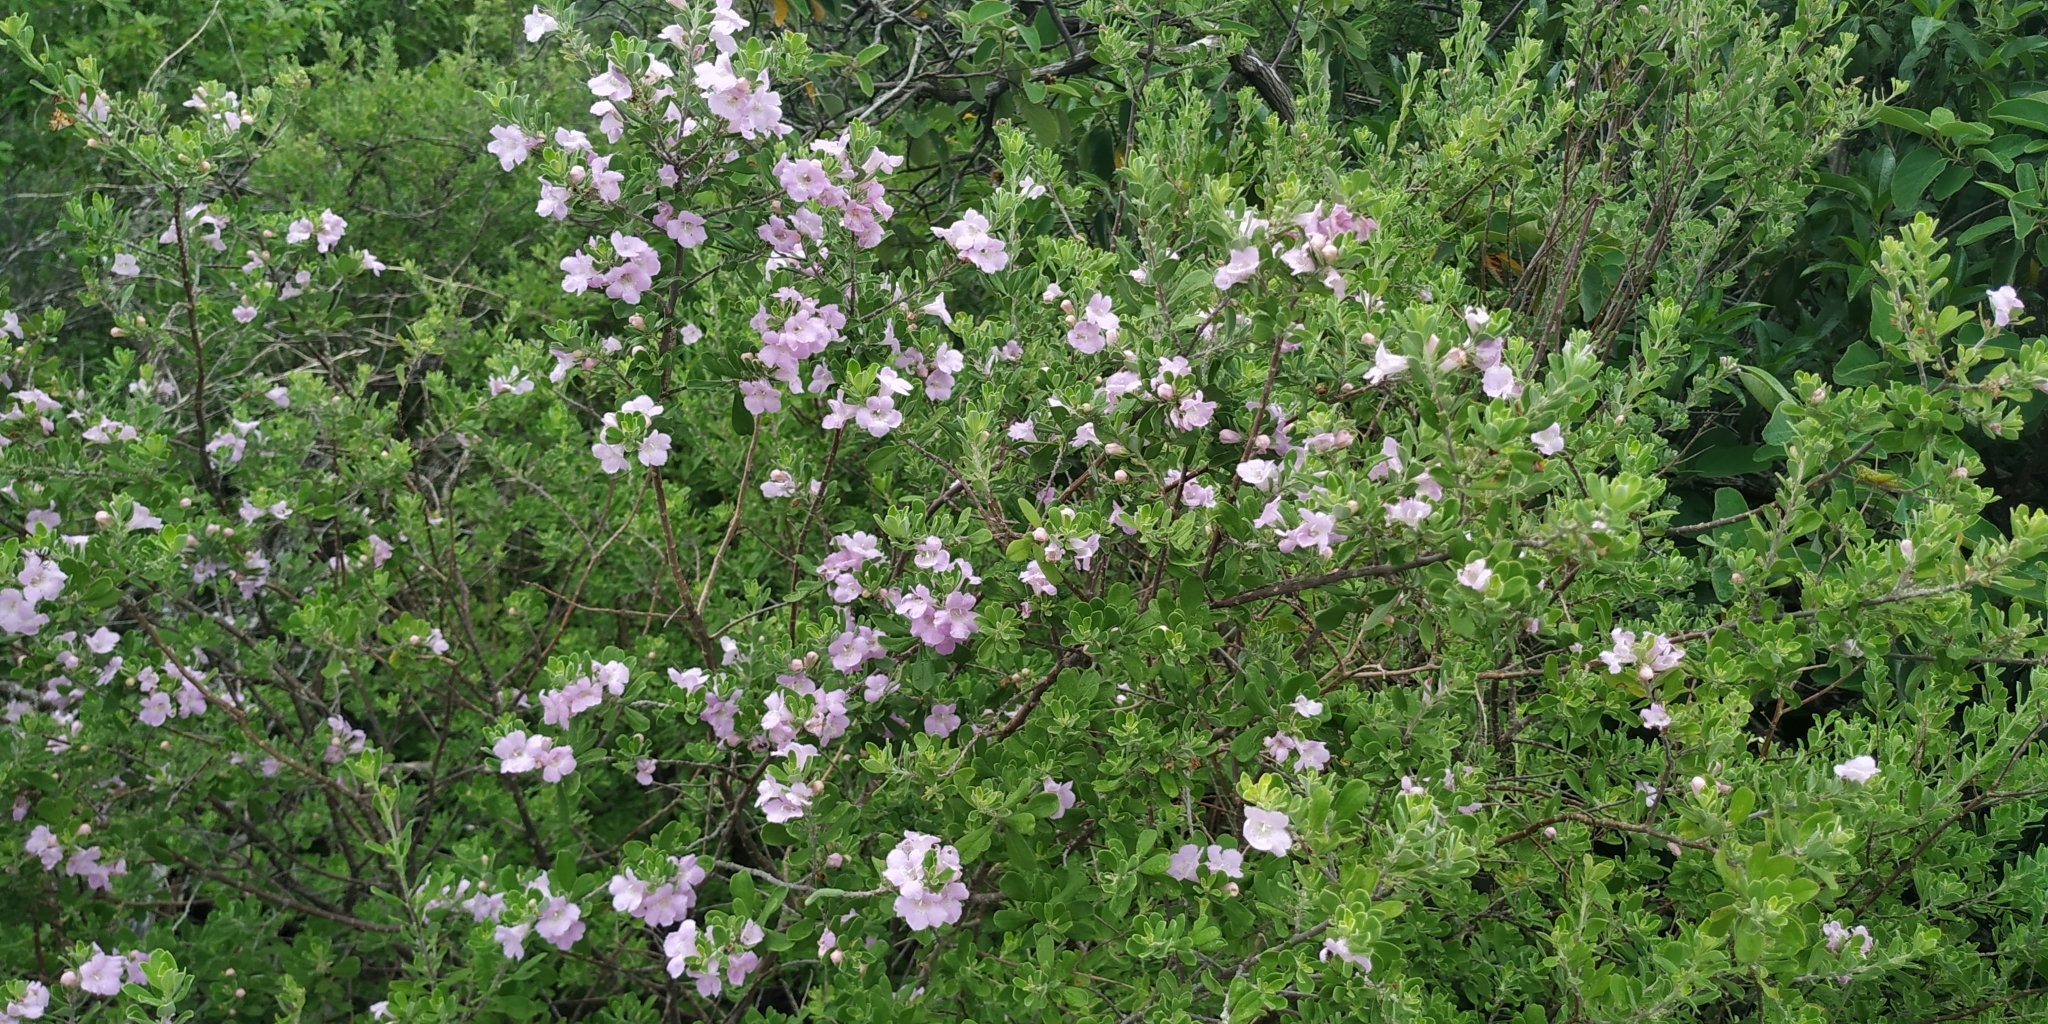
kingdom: Plantae
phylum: Tracheophyta
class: Magnoliopsida
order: Lamiales
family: Scrophulariaceae
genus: Leucophyllum
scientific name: Leucophyllum frutescens
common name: Texas silverleaf
